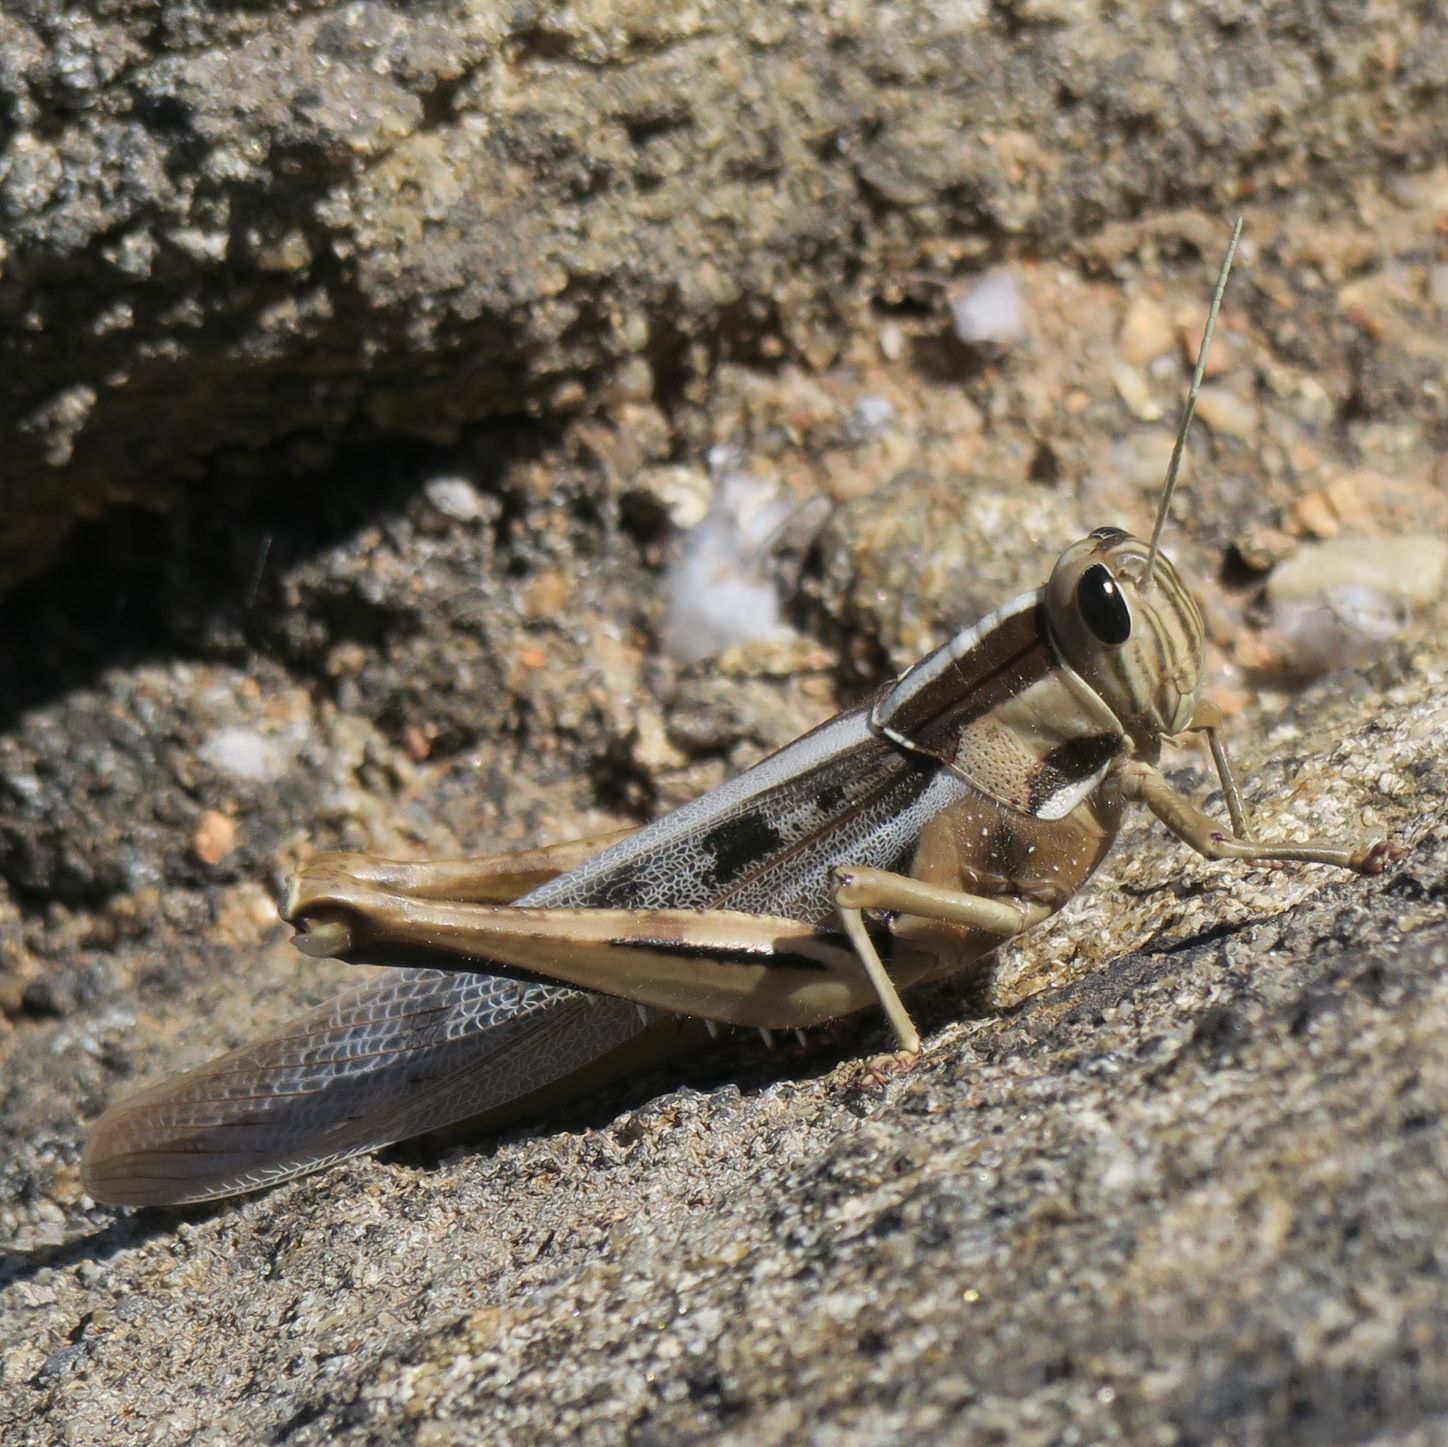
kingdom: Animalia
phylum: Arthropoda
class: Insecta
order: Orthoptera
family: Acrididae
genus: Acanthacris
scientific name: Acanthacris ruficornis
